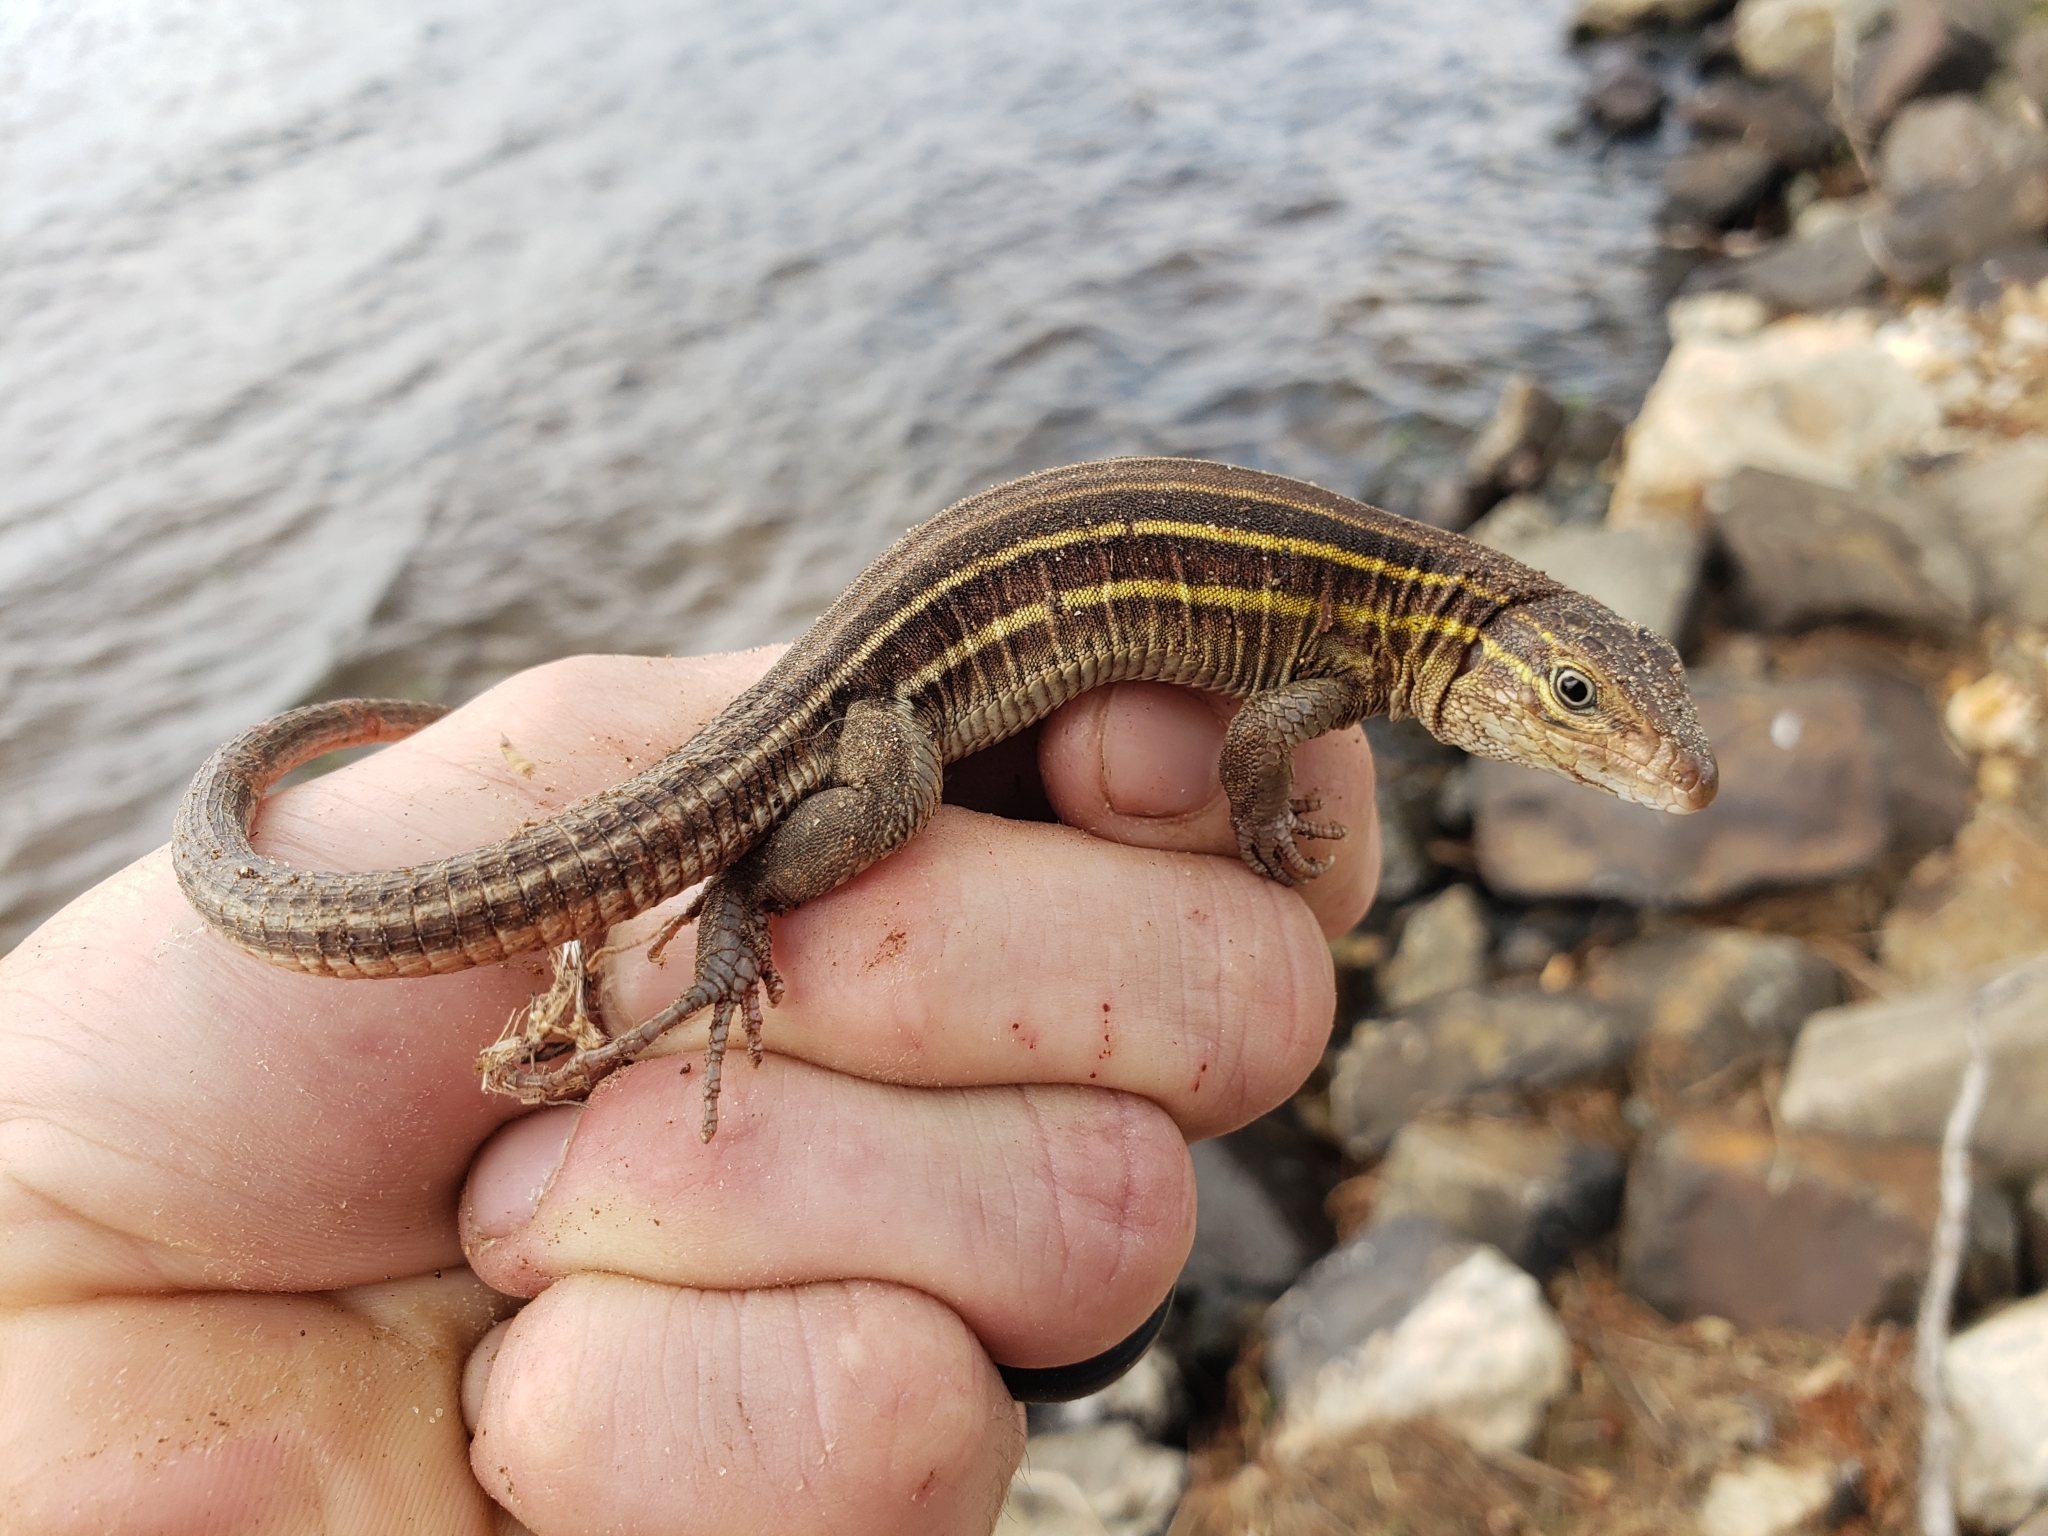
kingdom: Animalia
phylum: Chordata
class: Squamata
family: Teiidae
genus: Aspidoscelis
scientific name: Aspidoscelis sexlineatus
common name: Six-lined racerunner
